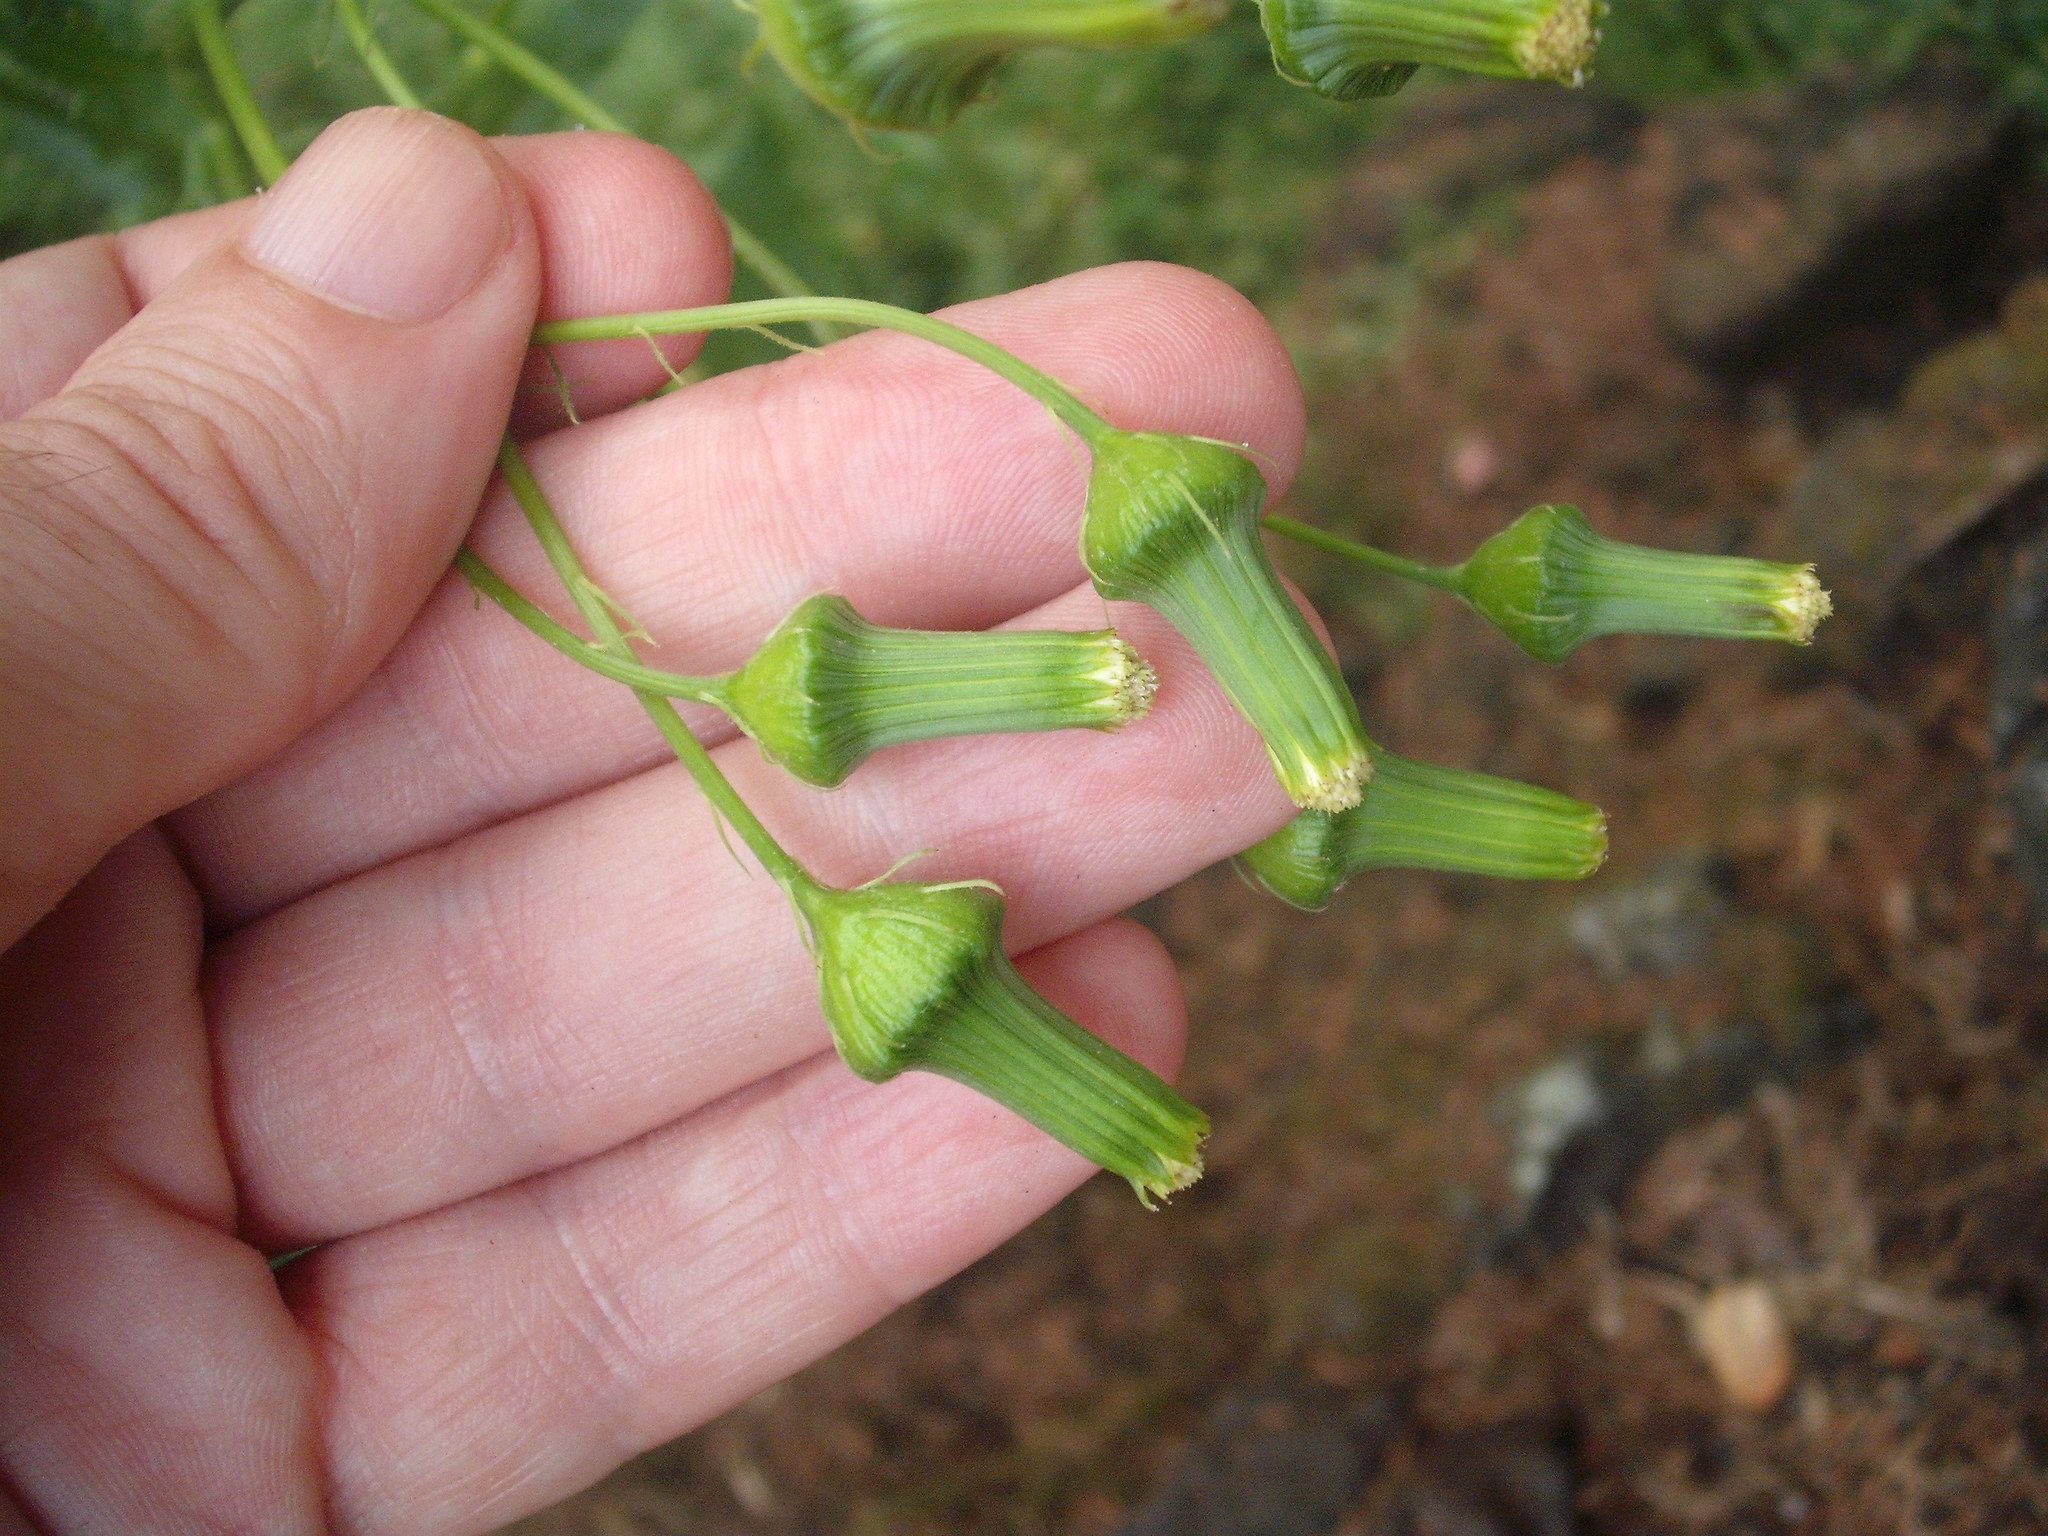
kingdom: Plantae
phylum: Tracheophyta
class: Magnoliopsida
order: Asterales
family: Asteraceae
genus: Erechtites
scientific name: Erechtites hieraciifolius
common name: American burnweed
